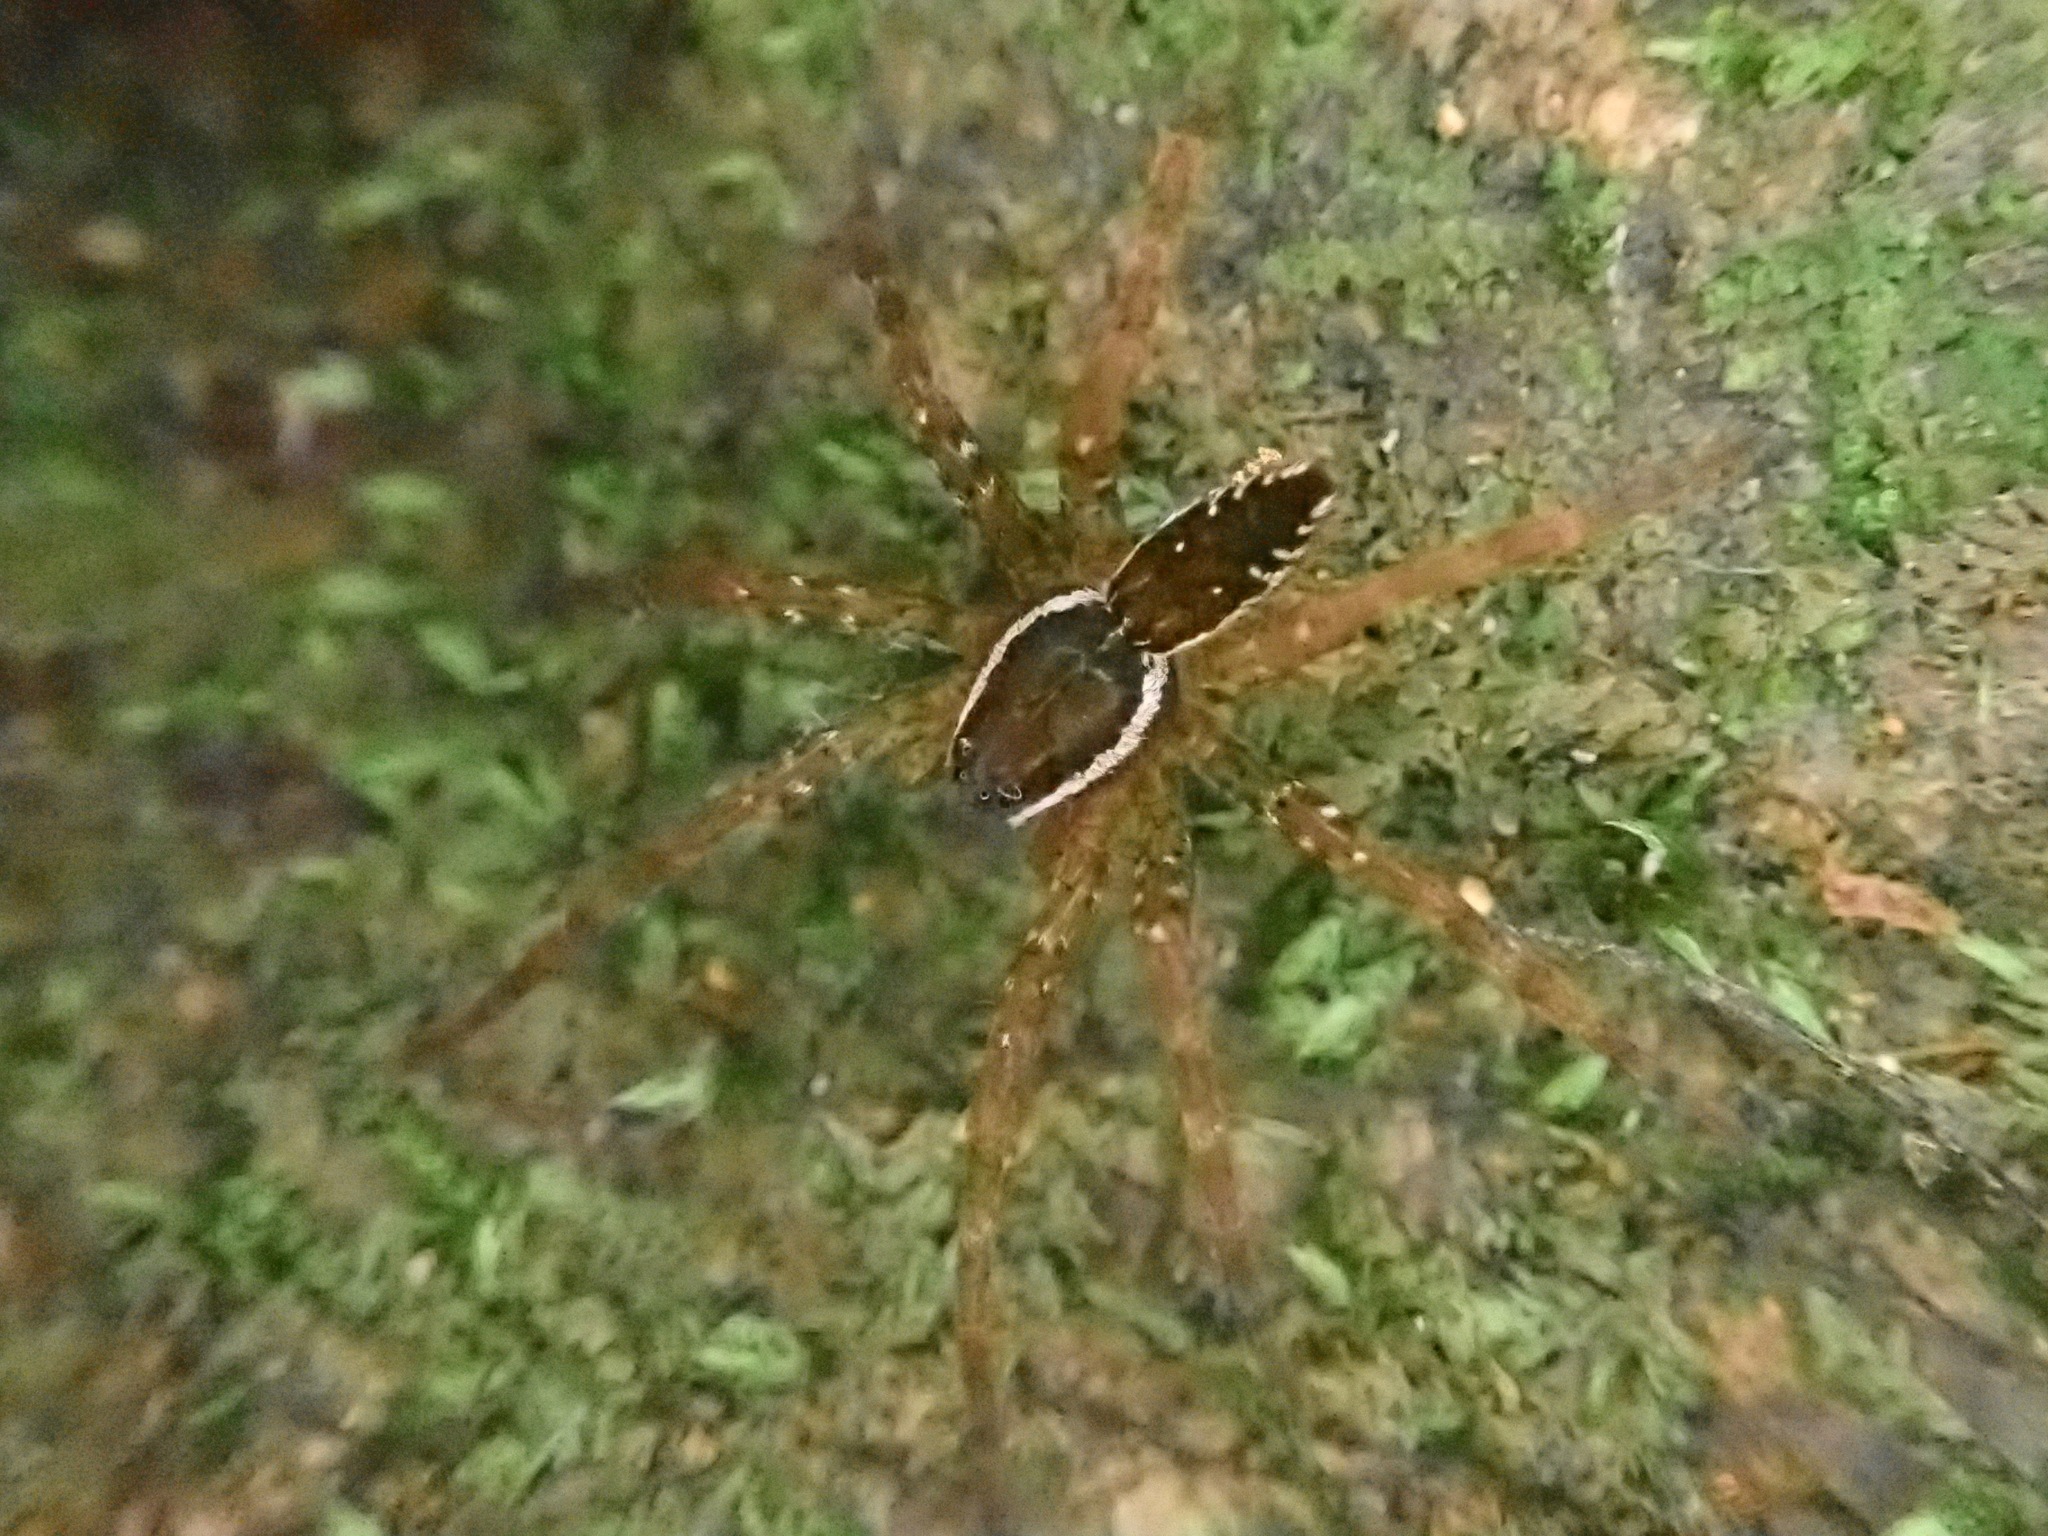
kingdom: Animalia
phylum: Arthropoda
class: Arachnida
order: Araneae
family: Pisauridae
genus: Dolomedes
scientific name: Dolomedes dondalei
